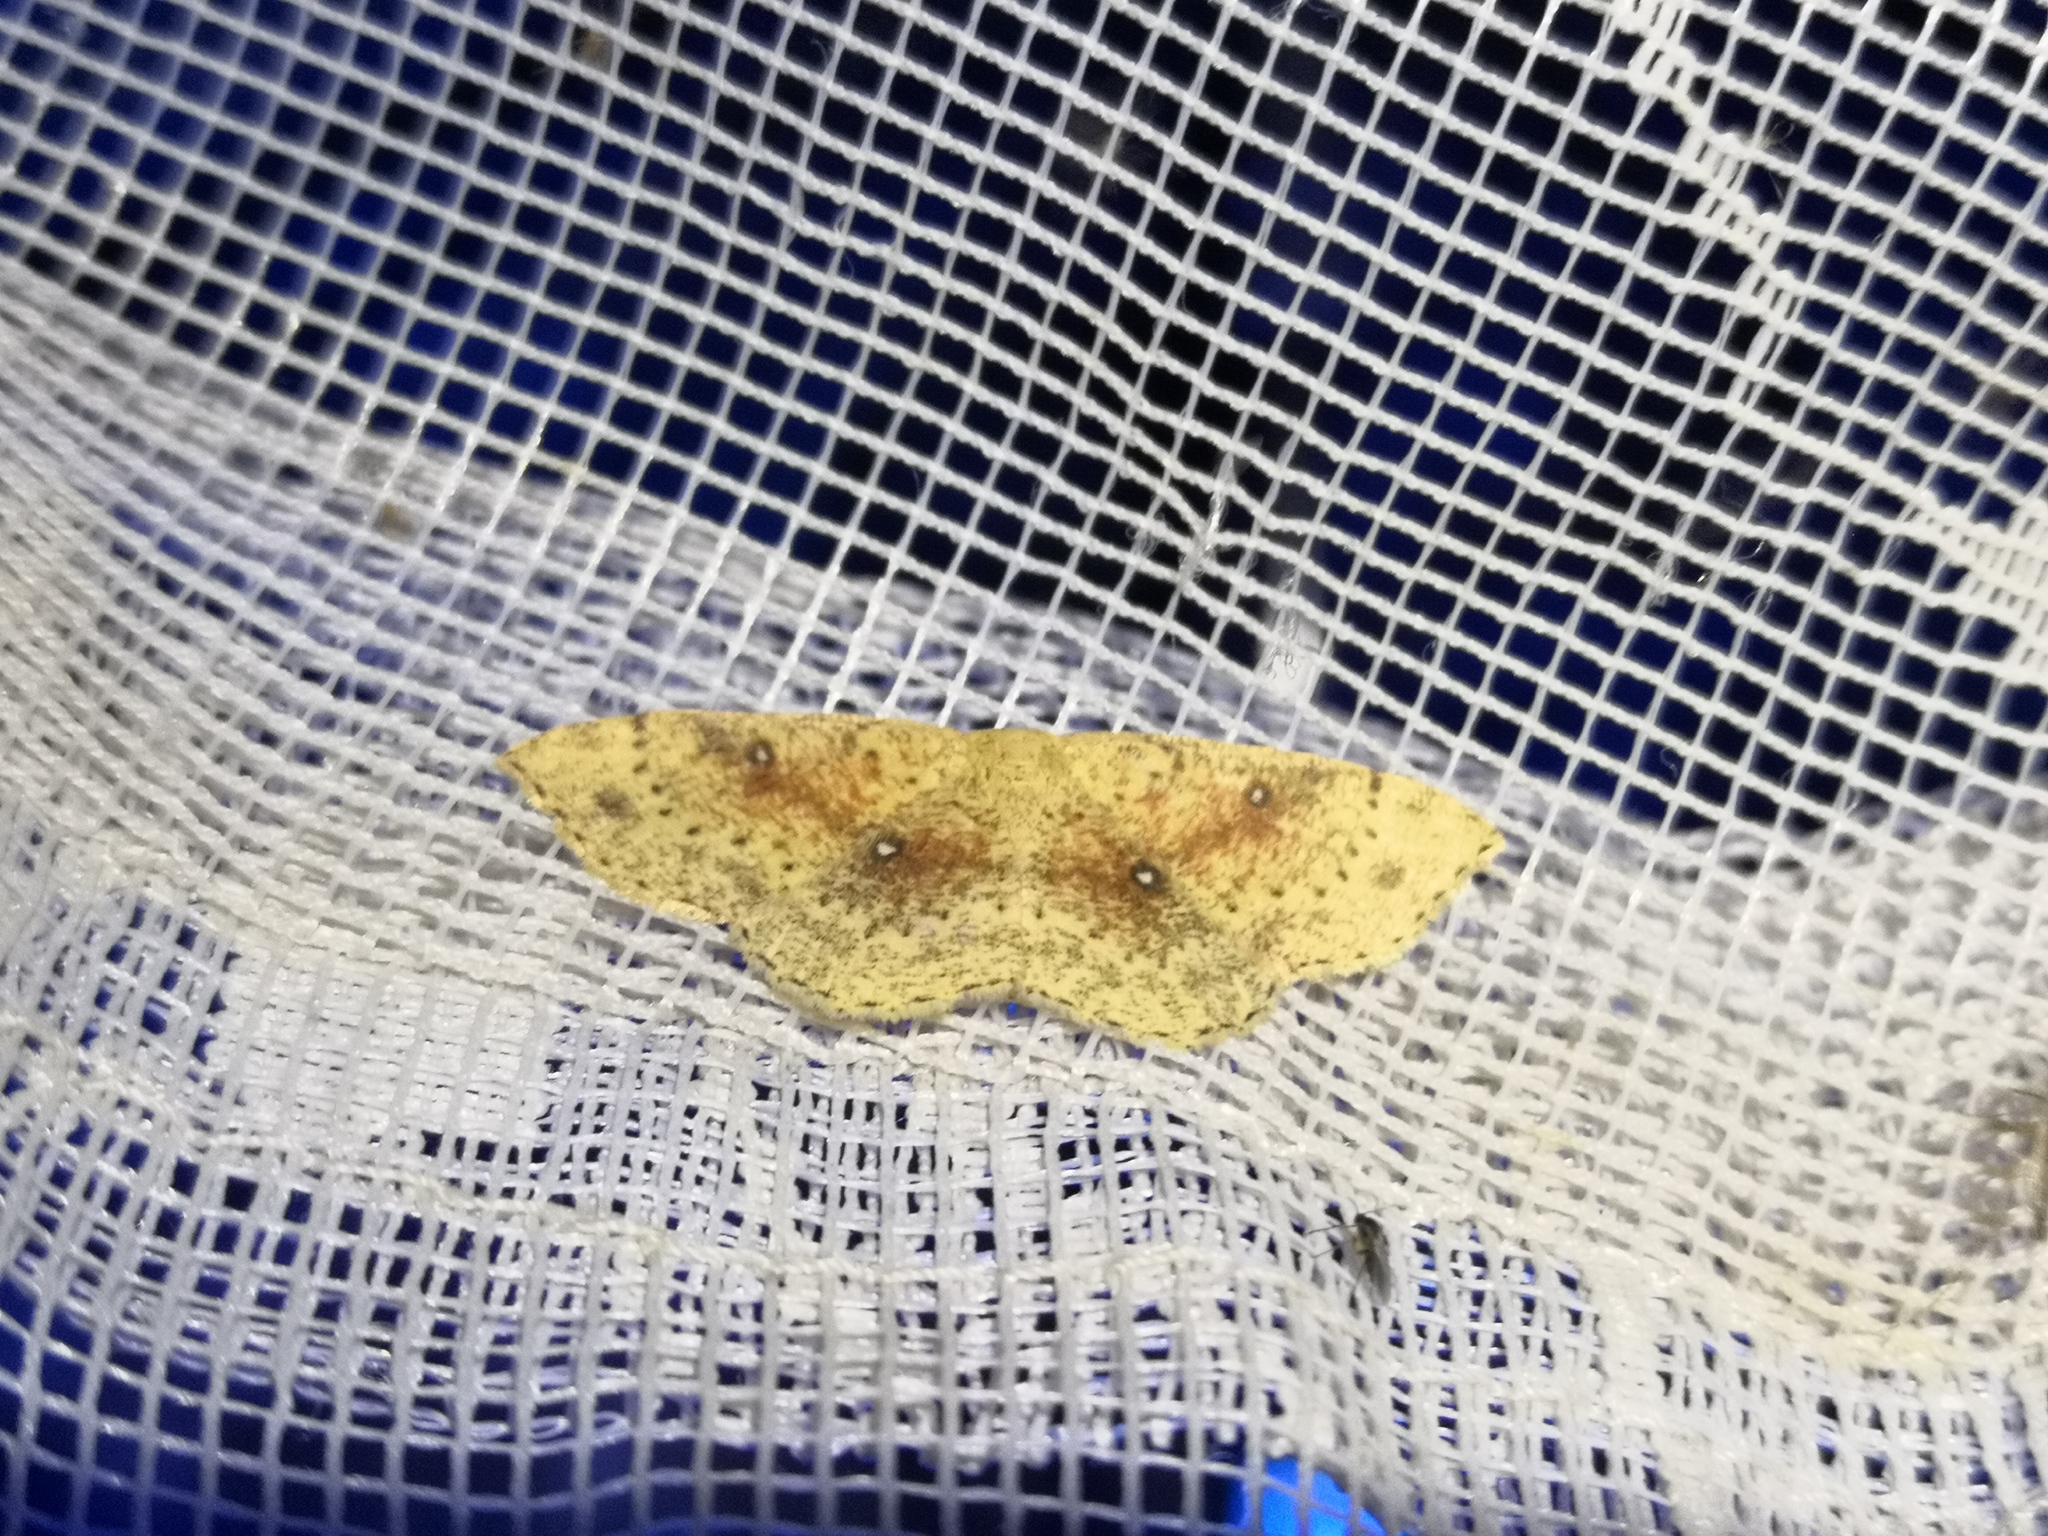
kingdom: Animalia
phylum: Arthropoda
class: Insecta
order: Lepidoptera
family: Geometridae
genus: Cyclophora
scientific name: Cyclophora porata
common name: False mocha
